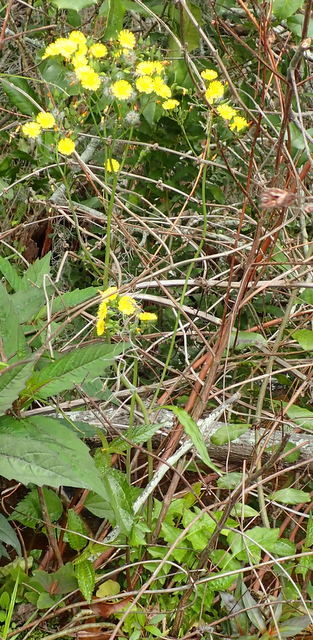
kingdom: Plantae
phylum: Tracheophyta
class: Magnoliopsida
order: Asterales
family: Asteraceae
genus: Youngia
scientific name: Youngia japonica
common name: Oriental false hawksbeard
